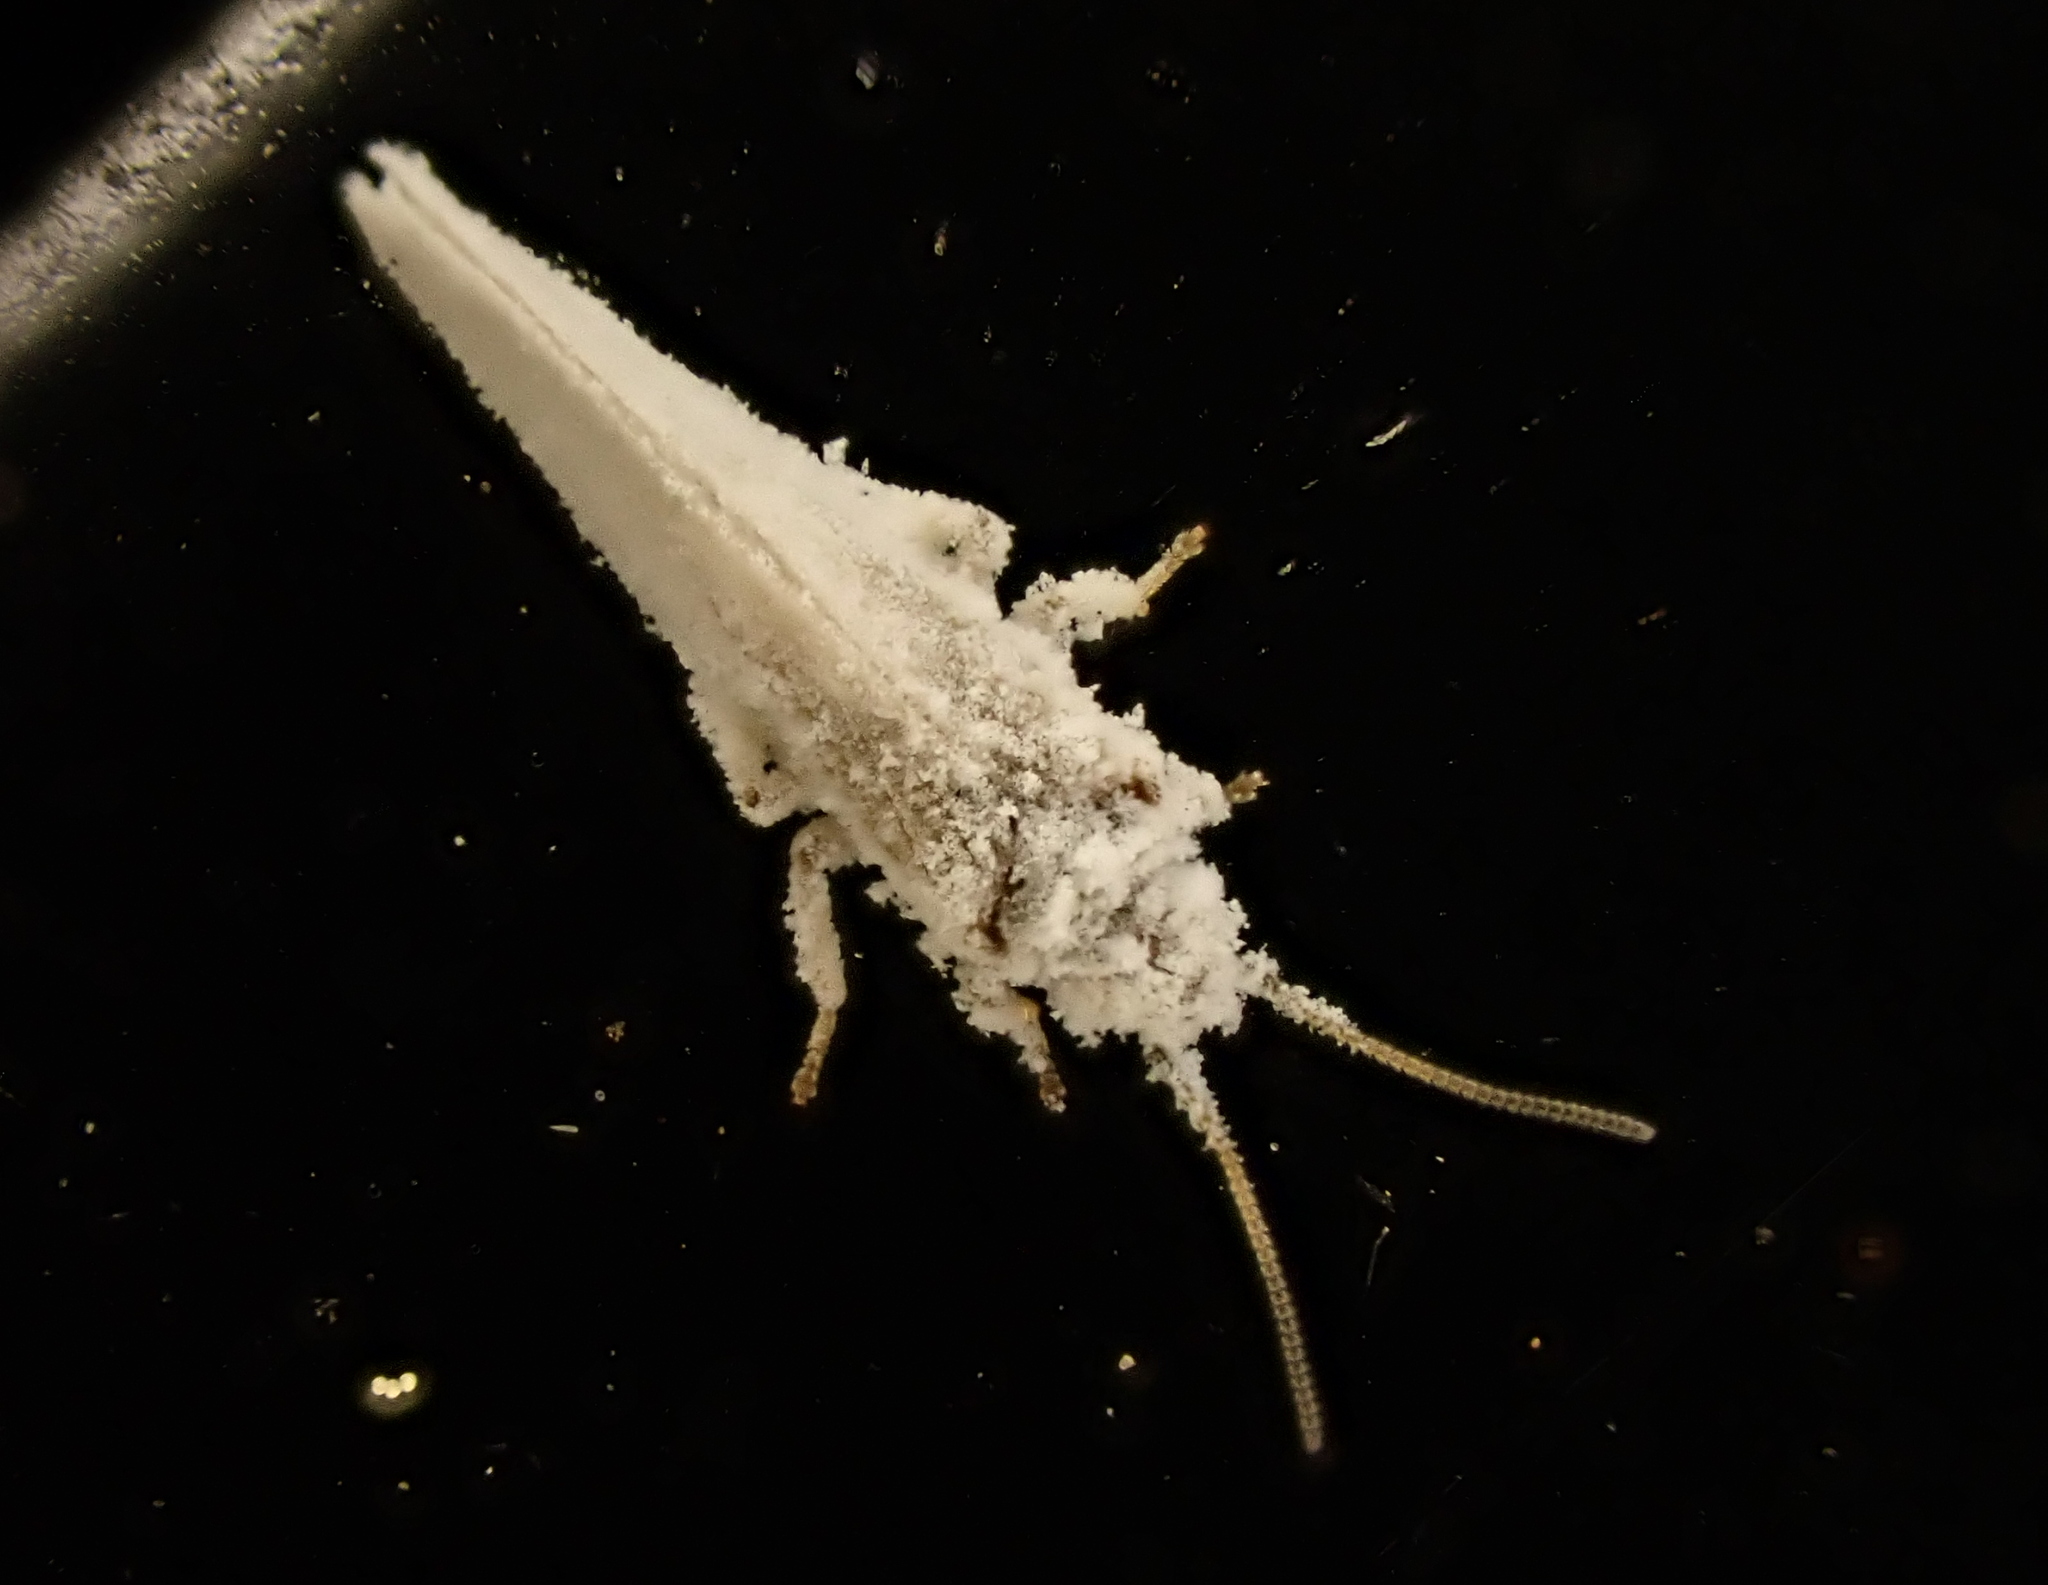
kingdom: Animalia
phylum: Arthropoda
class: Insecta
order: Neuroptera
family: Coniopterygidae
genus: Cryptoscenea
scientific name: Cryptoscenea australiensis
